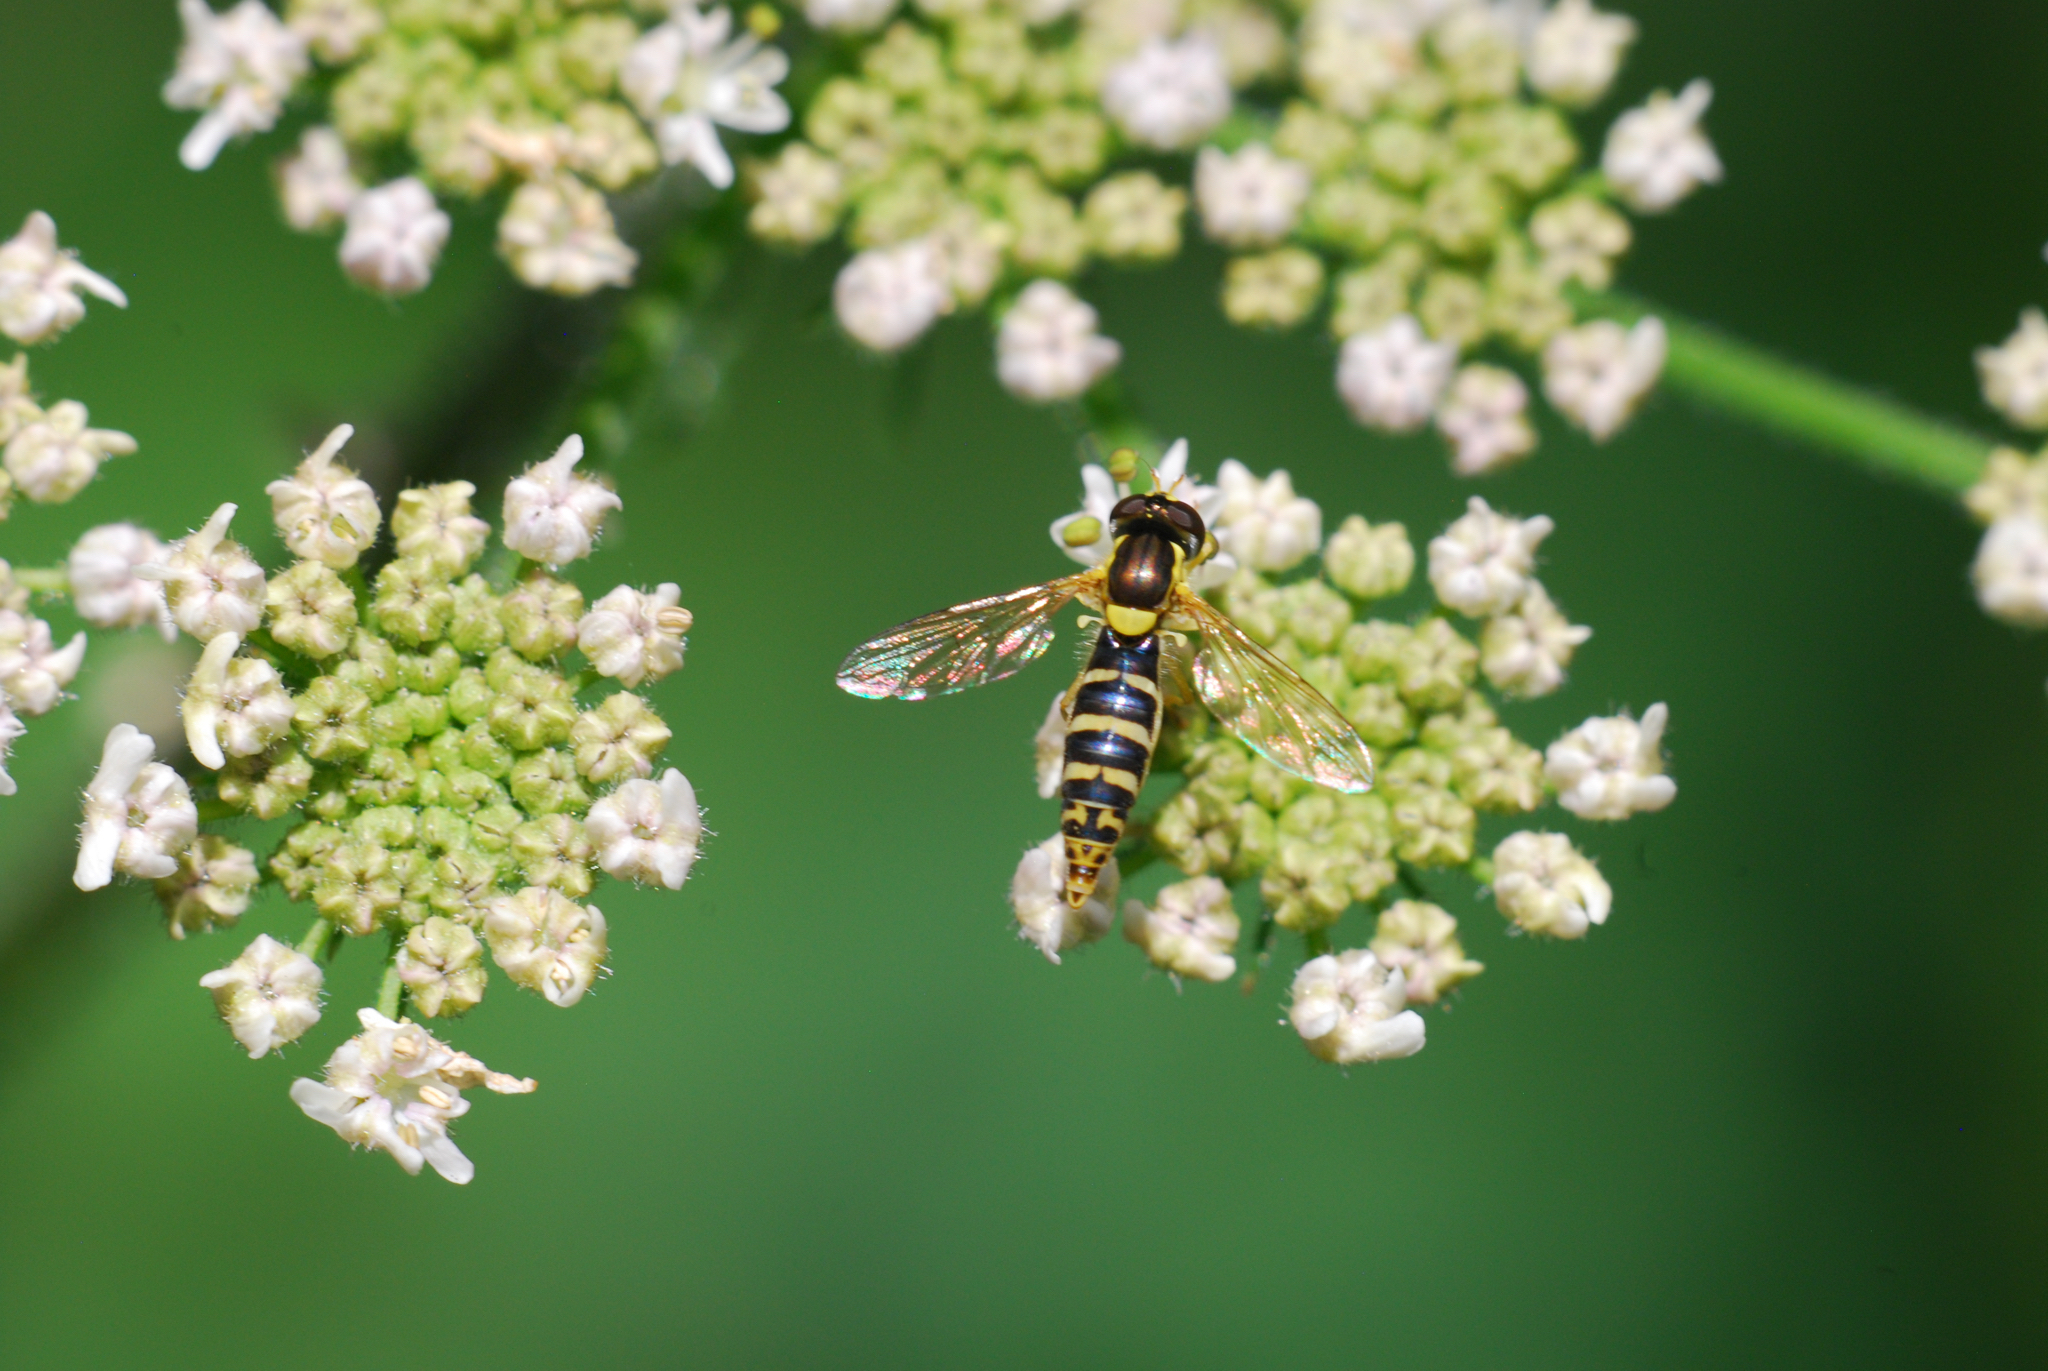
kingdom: Animalia
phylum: Arthropoda
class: Insecta
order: Diptera
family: Syrphidae
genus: Sphaerophoria
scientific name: Sphaerophoria
